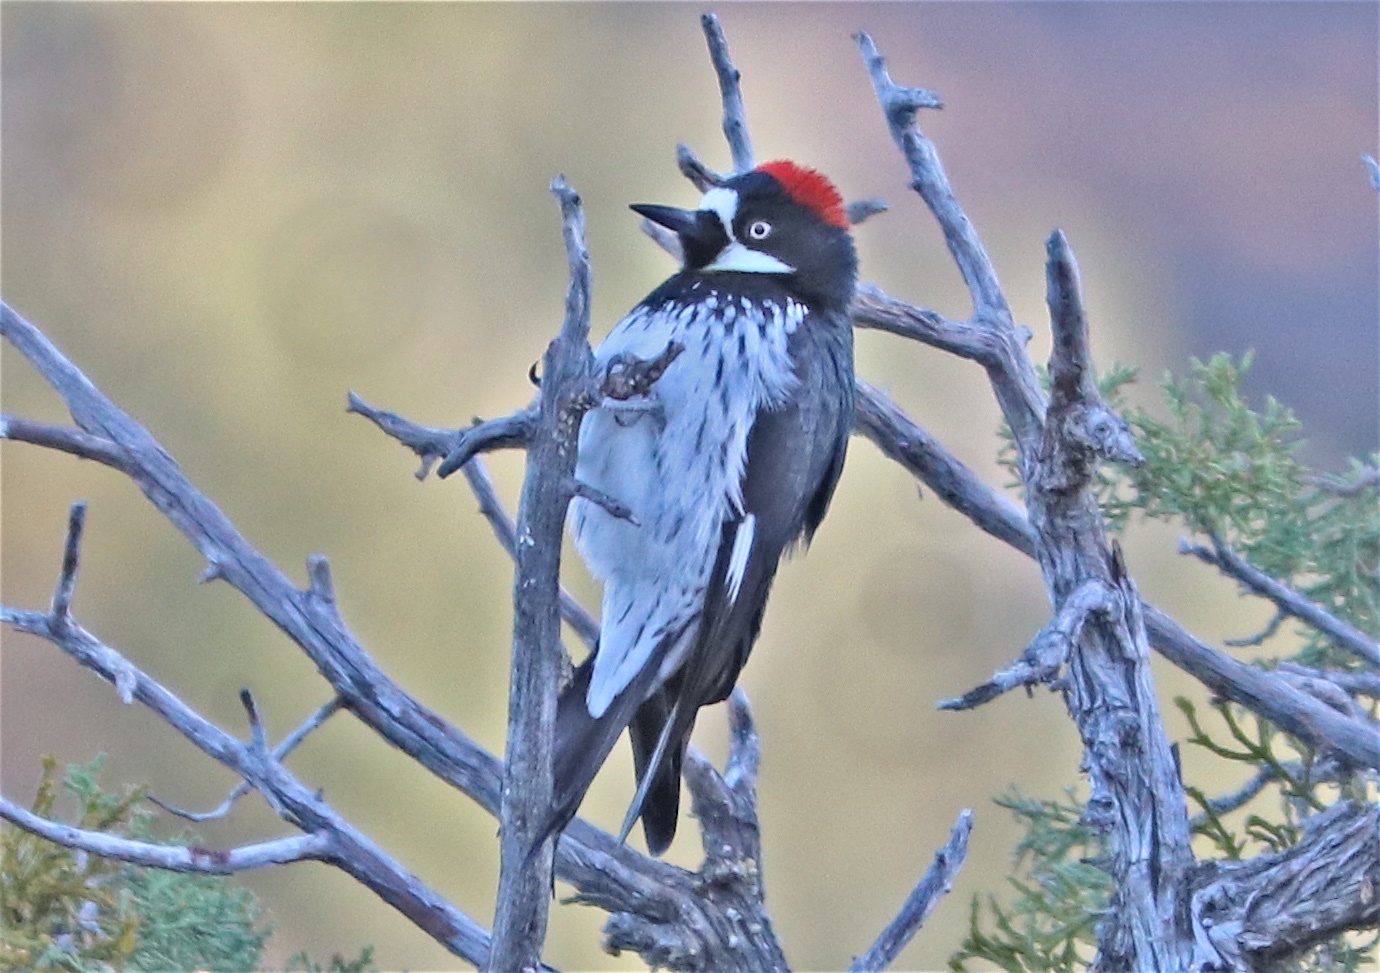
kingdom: Animalia
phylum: Chordata
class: Aves
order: Piciformes
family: Picidae
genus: Melanerpes
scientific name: Melanerpes formicivorus
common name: Acorn woodpecker
